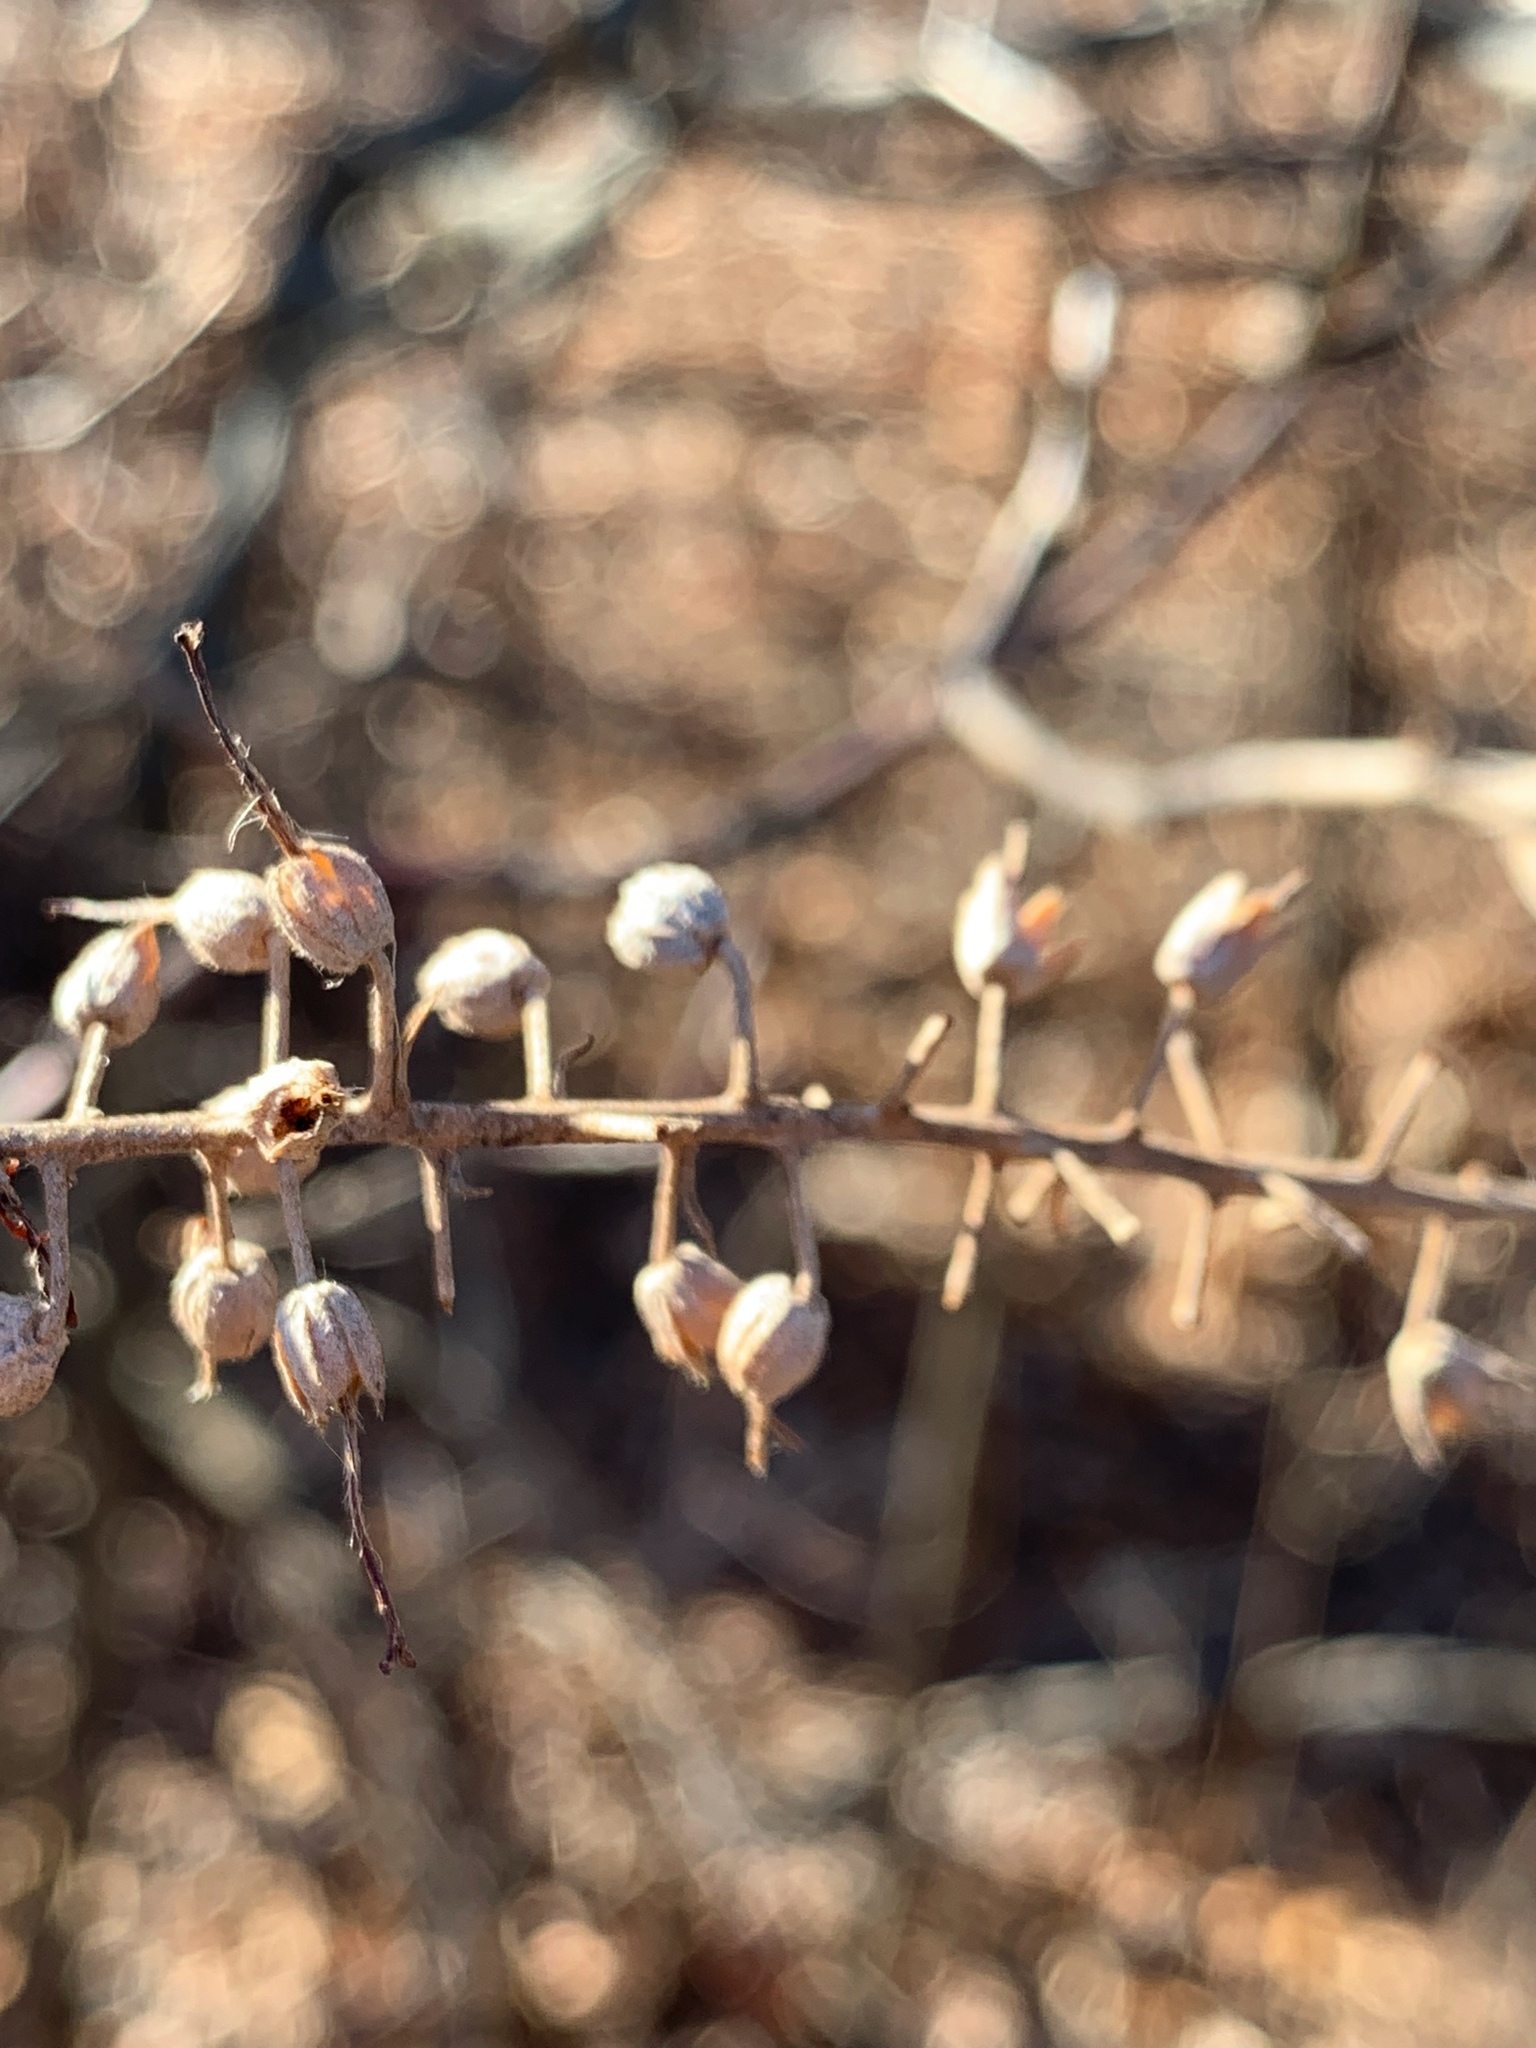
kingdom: Plantae
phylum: Tracheophyta
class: Magnoliopsida
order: Ericales
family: Clethraceae
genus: Clethra
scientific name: Clethra alnifolia
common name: Sweet pepperbush
